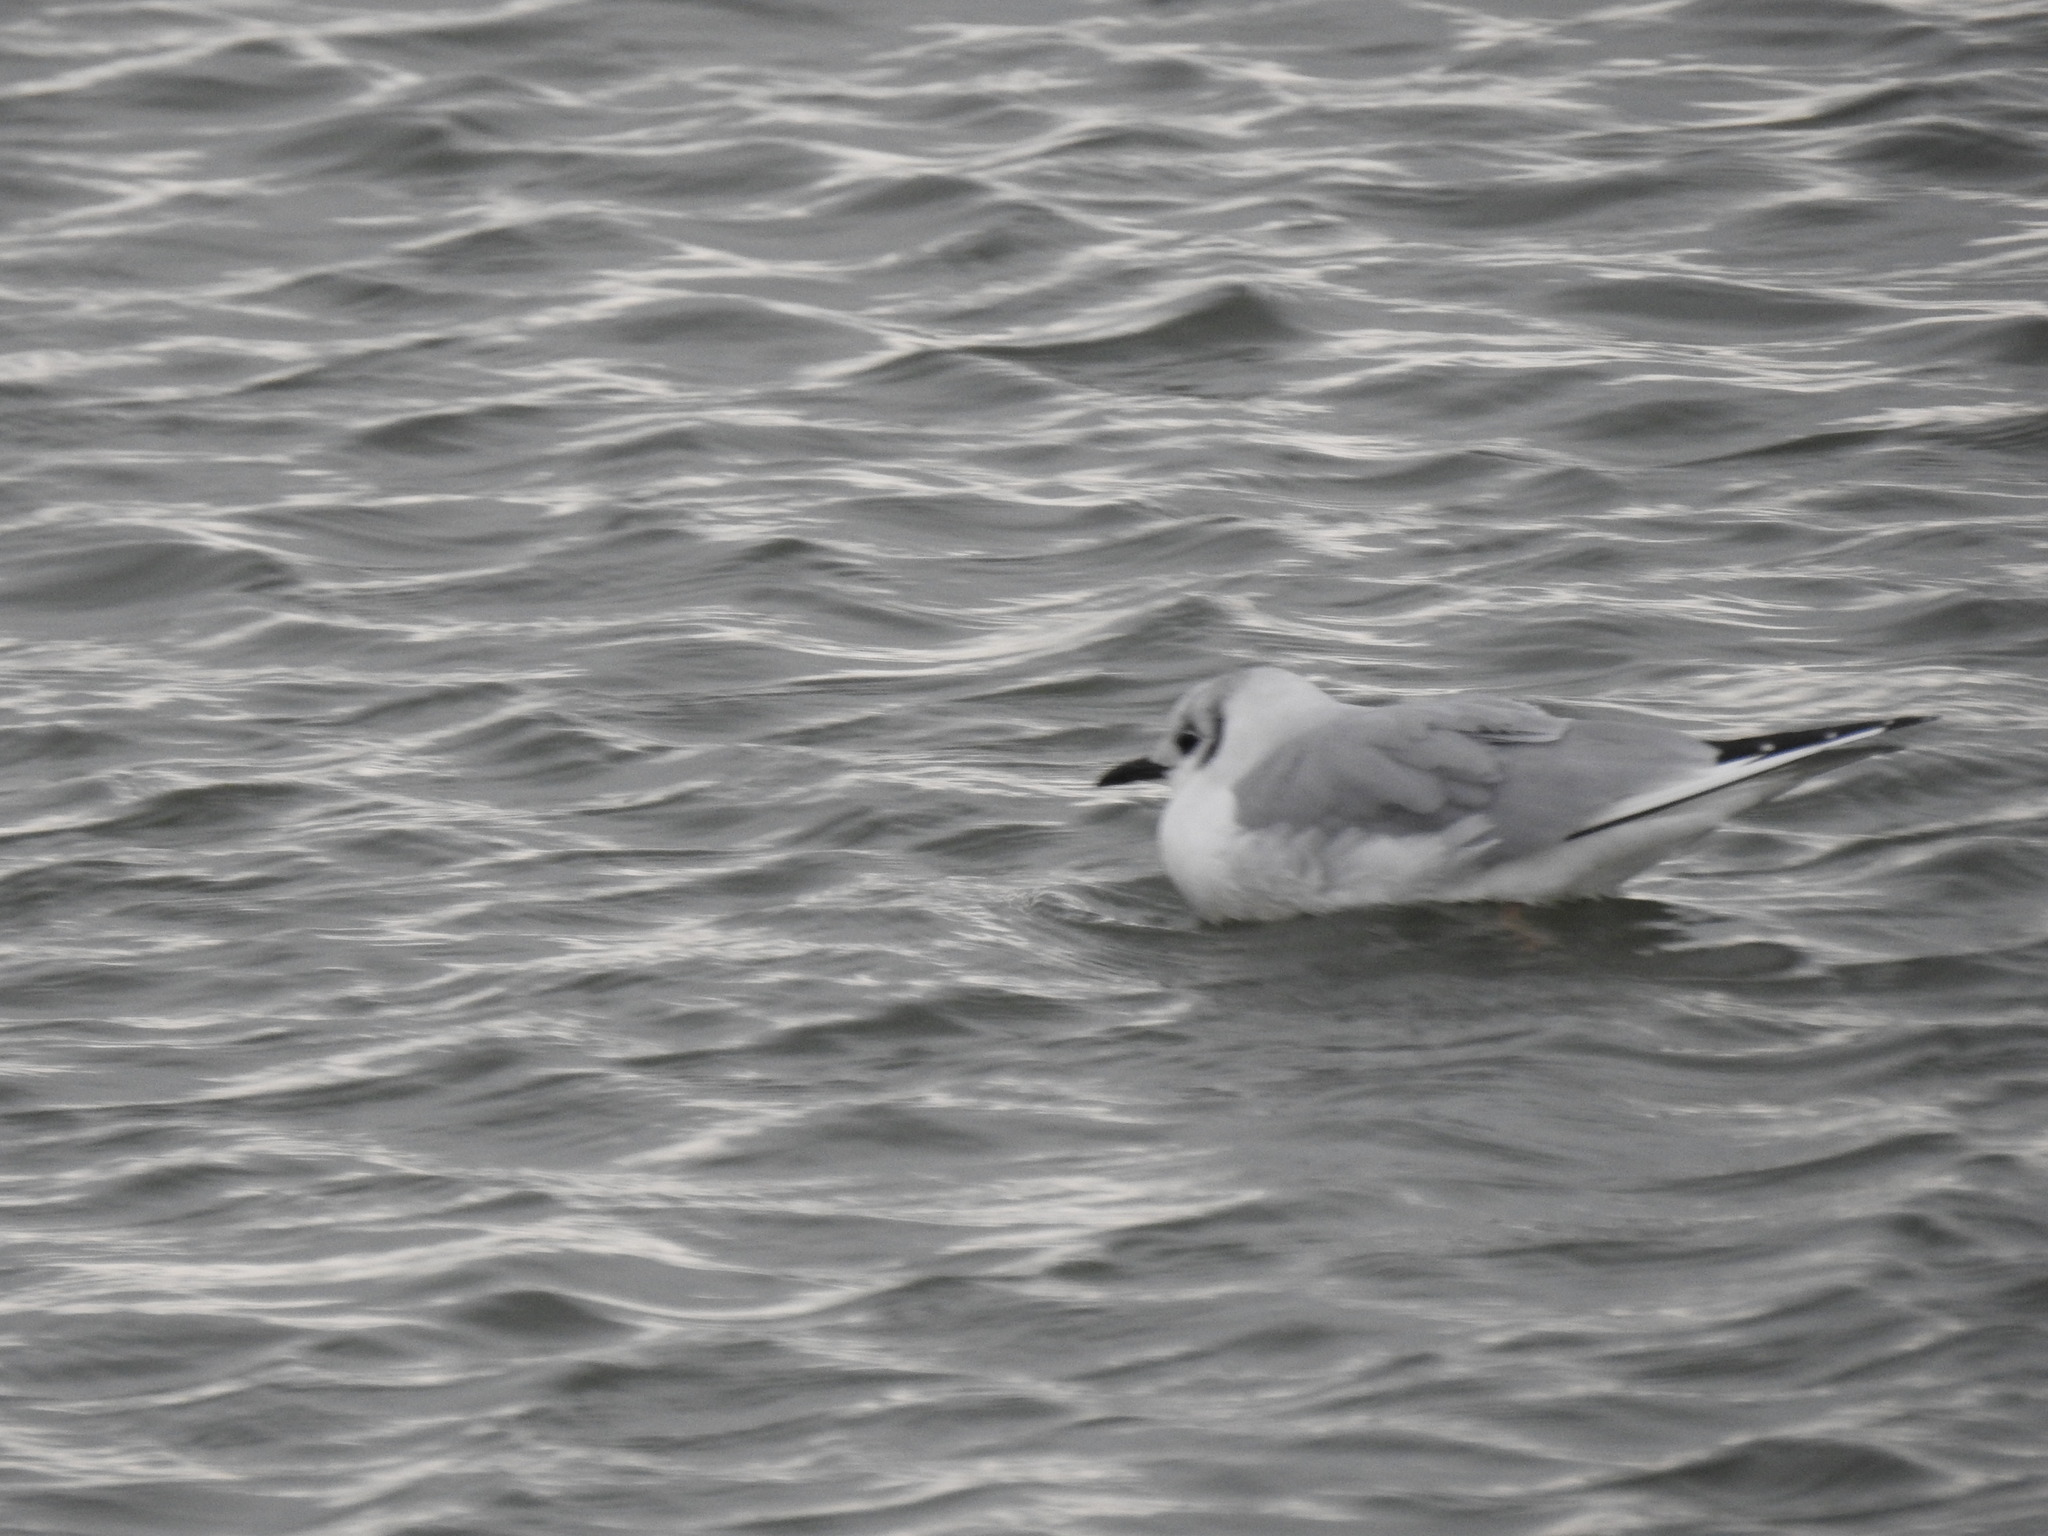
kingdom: Animalia
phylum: Chordata
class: Aves
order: Charadriiformes
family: Laridae
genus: Chroicocephalus
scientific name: Chroicocephalus philadelphia
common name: Bonaparte's gull
